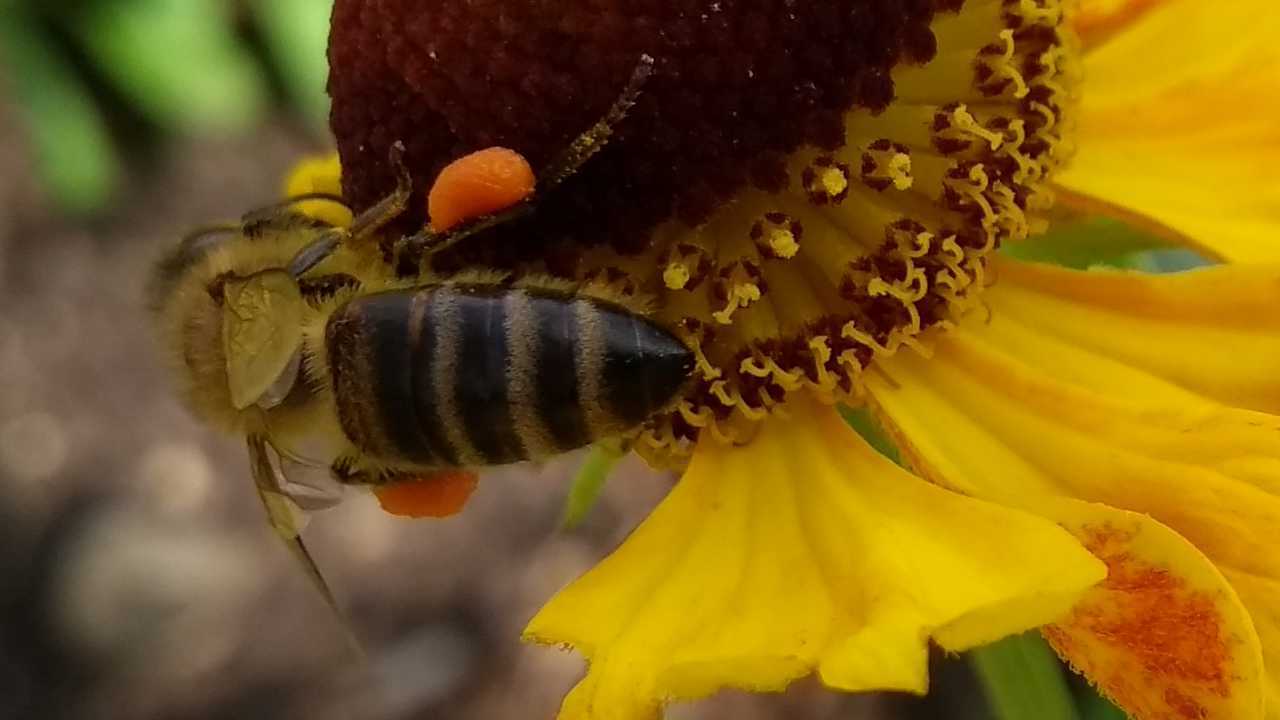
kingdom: Animalia
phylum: Arthropoda
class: Insecta
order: Hymenoptera
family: Apidae
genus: Apis
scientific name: Apis mellifera
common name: Honey bee
